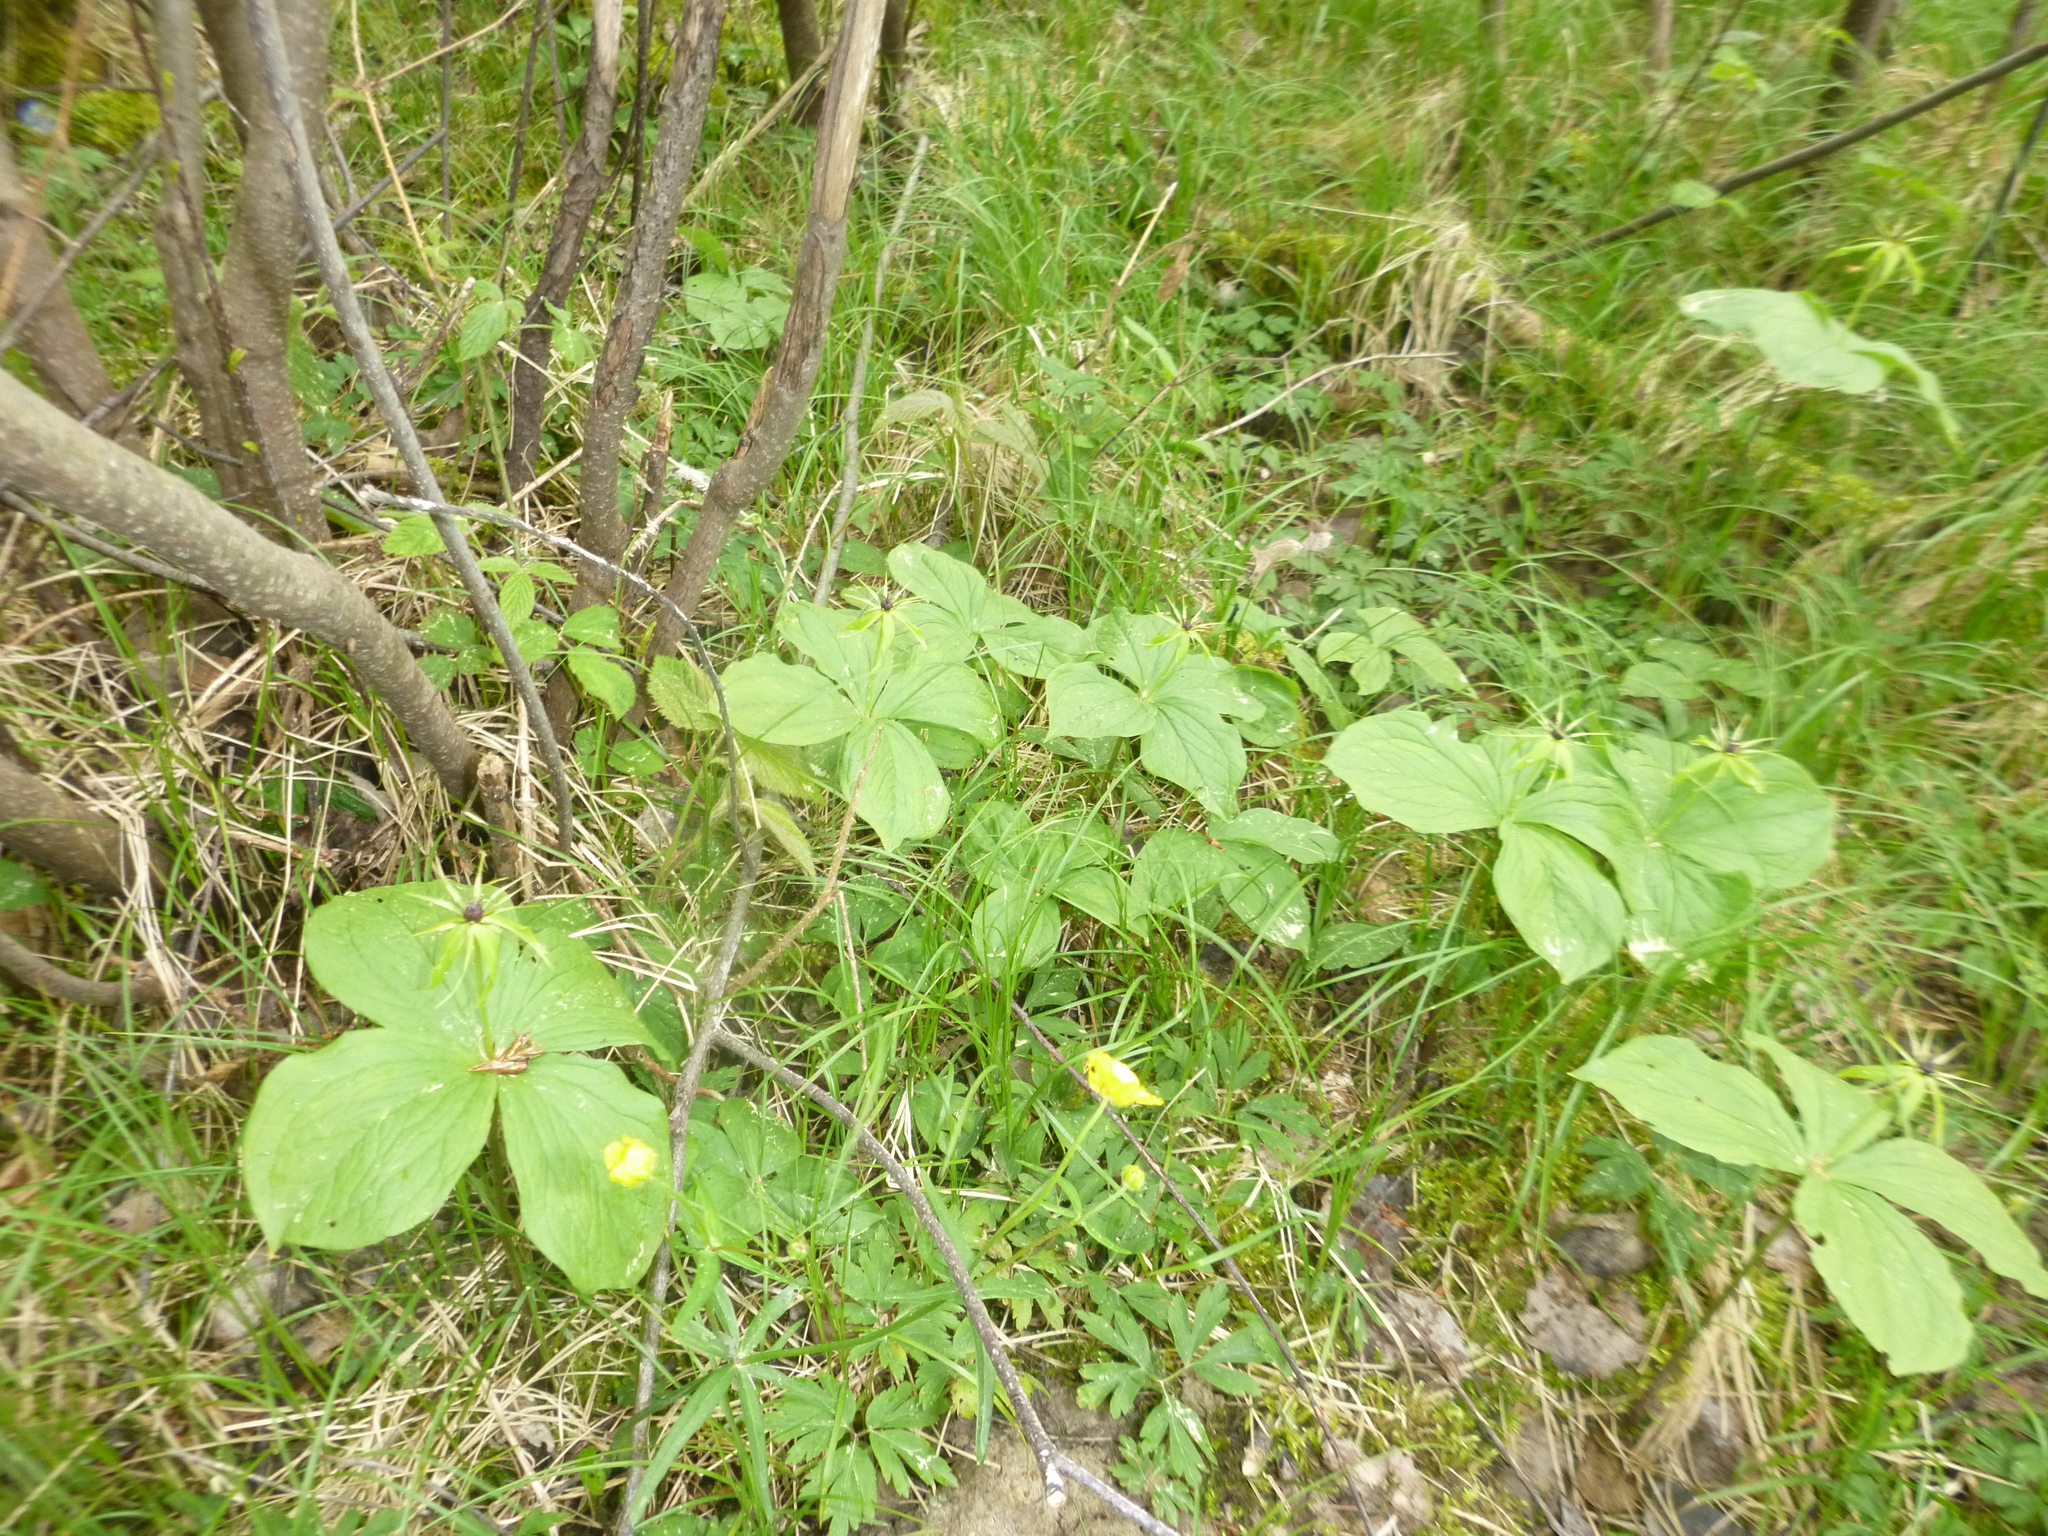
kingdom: Plantae
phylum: Tracheophyta
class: Liliopsida
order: Liliales
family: Melanthiaceae
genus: Paris
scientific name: Paris quadrifolia
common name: Herb-paris
